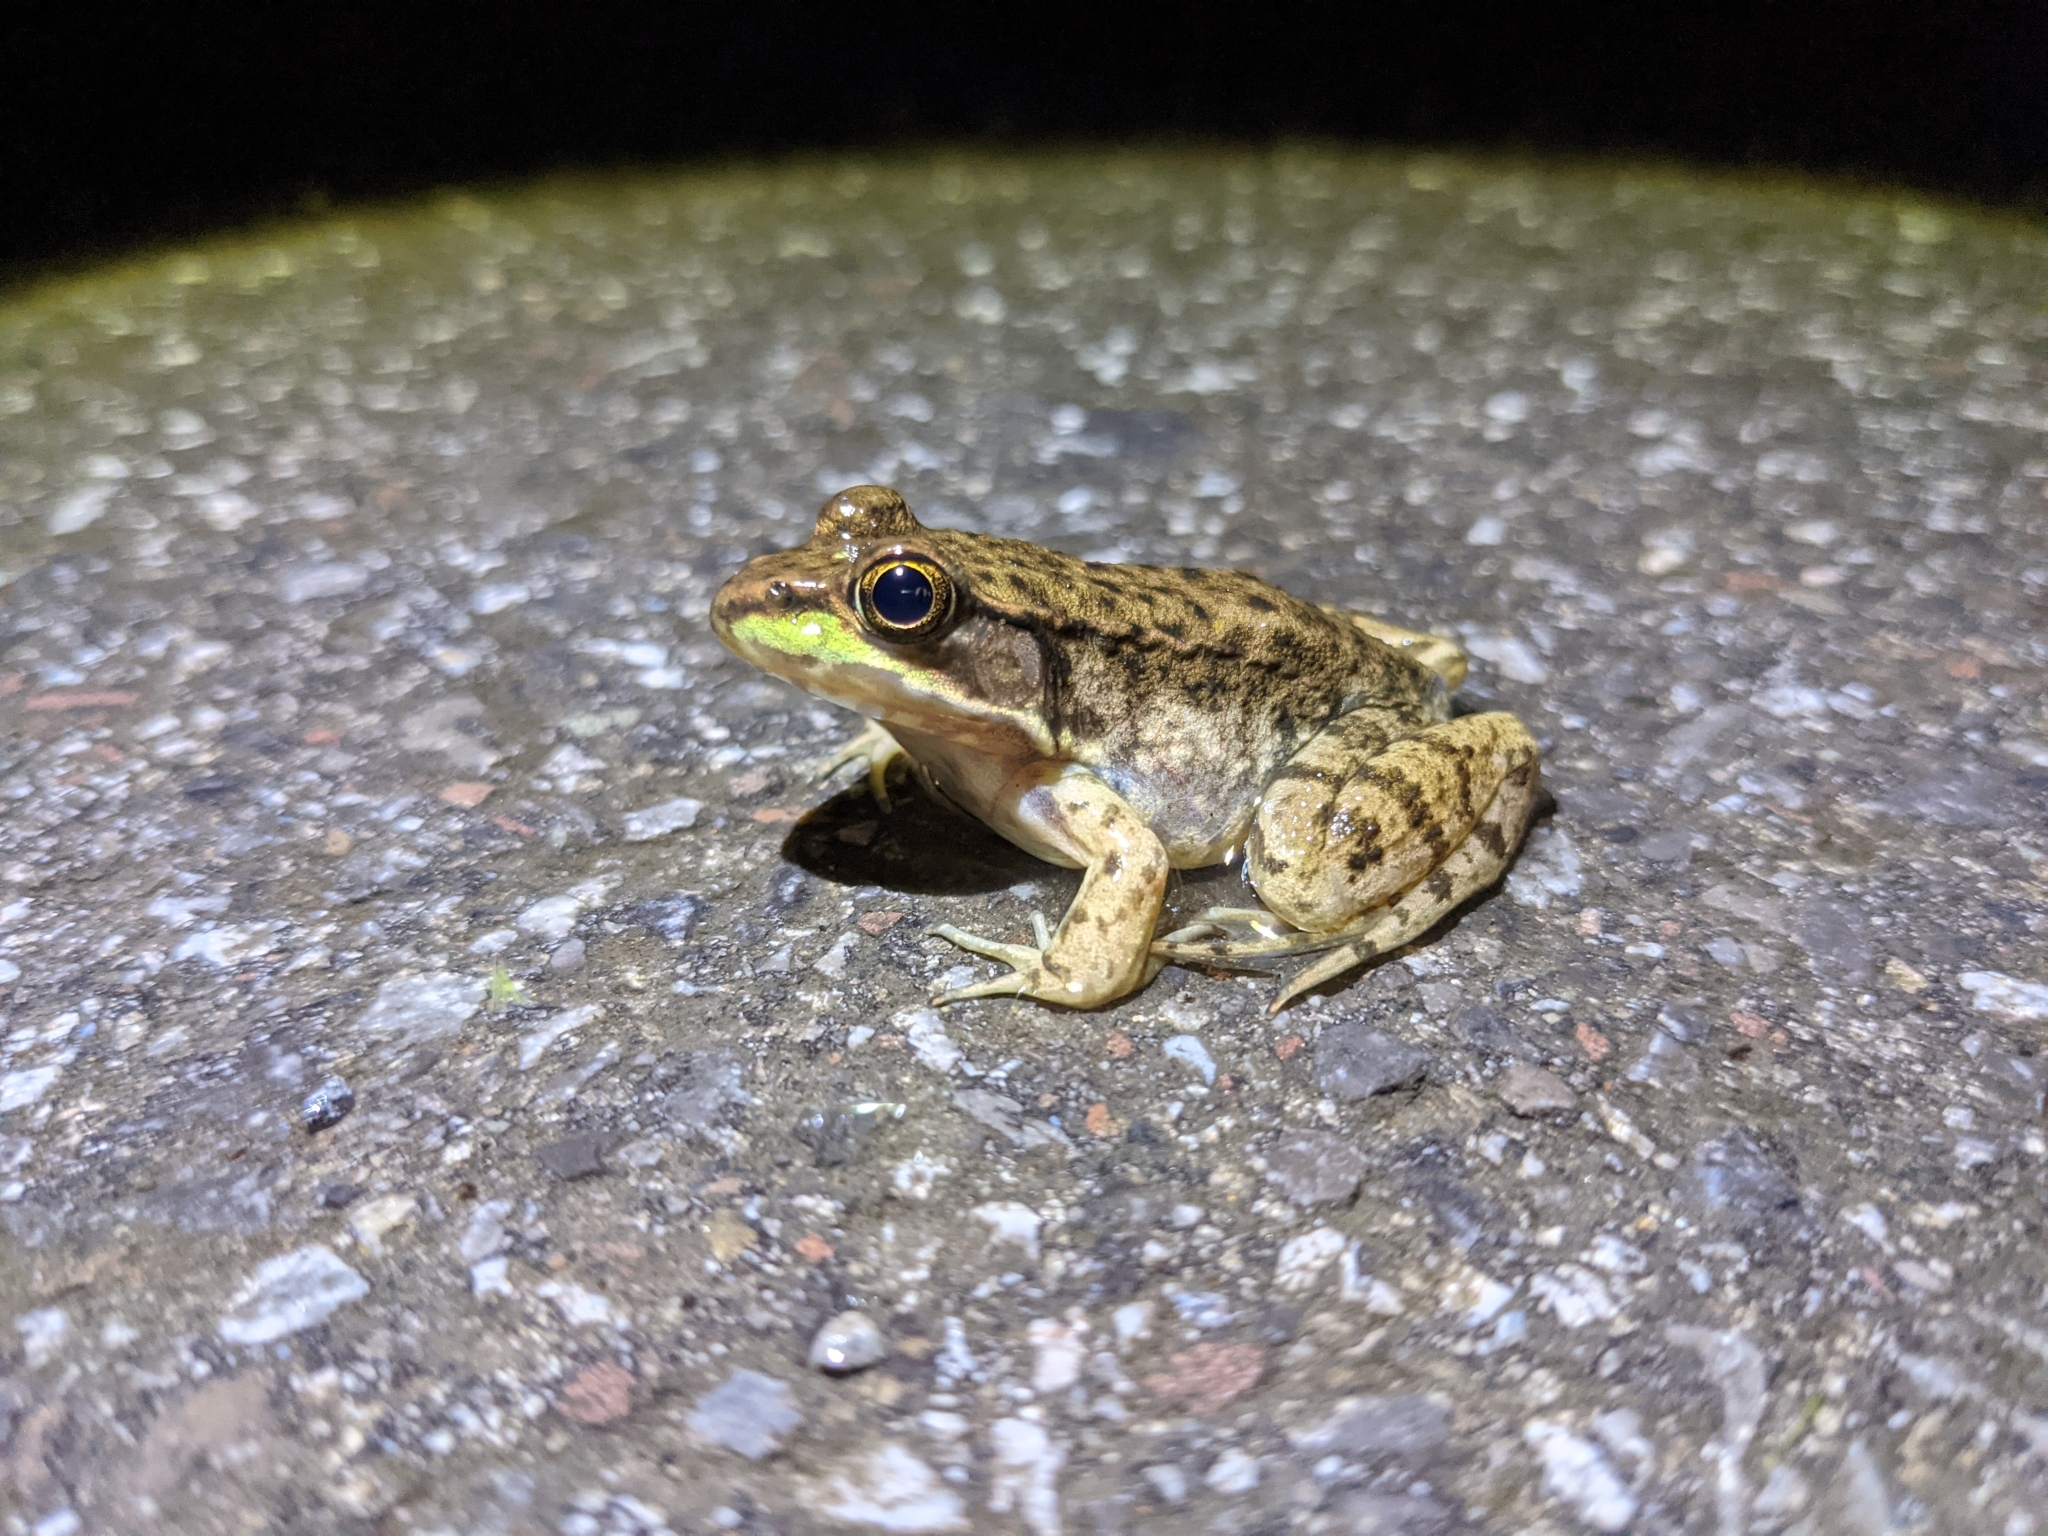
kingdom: Animalia
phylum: Chordata
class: Amphibia
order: Anura
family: Ranidae
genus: Lithobates
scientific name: Lithobates clamitans
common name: Green frog
